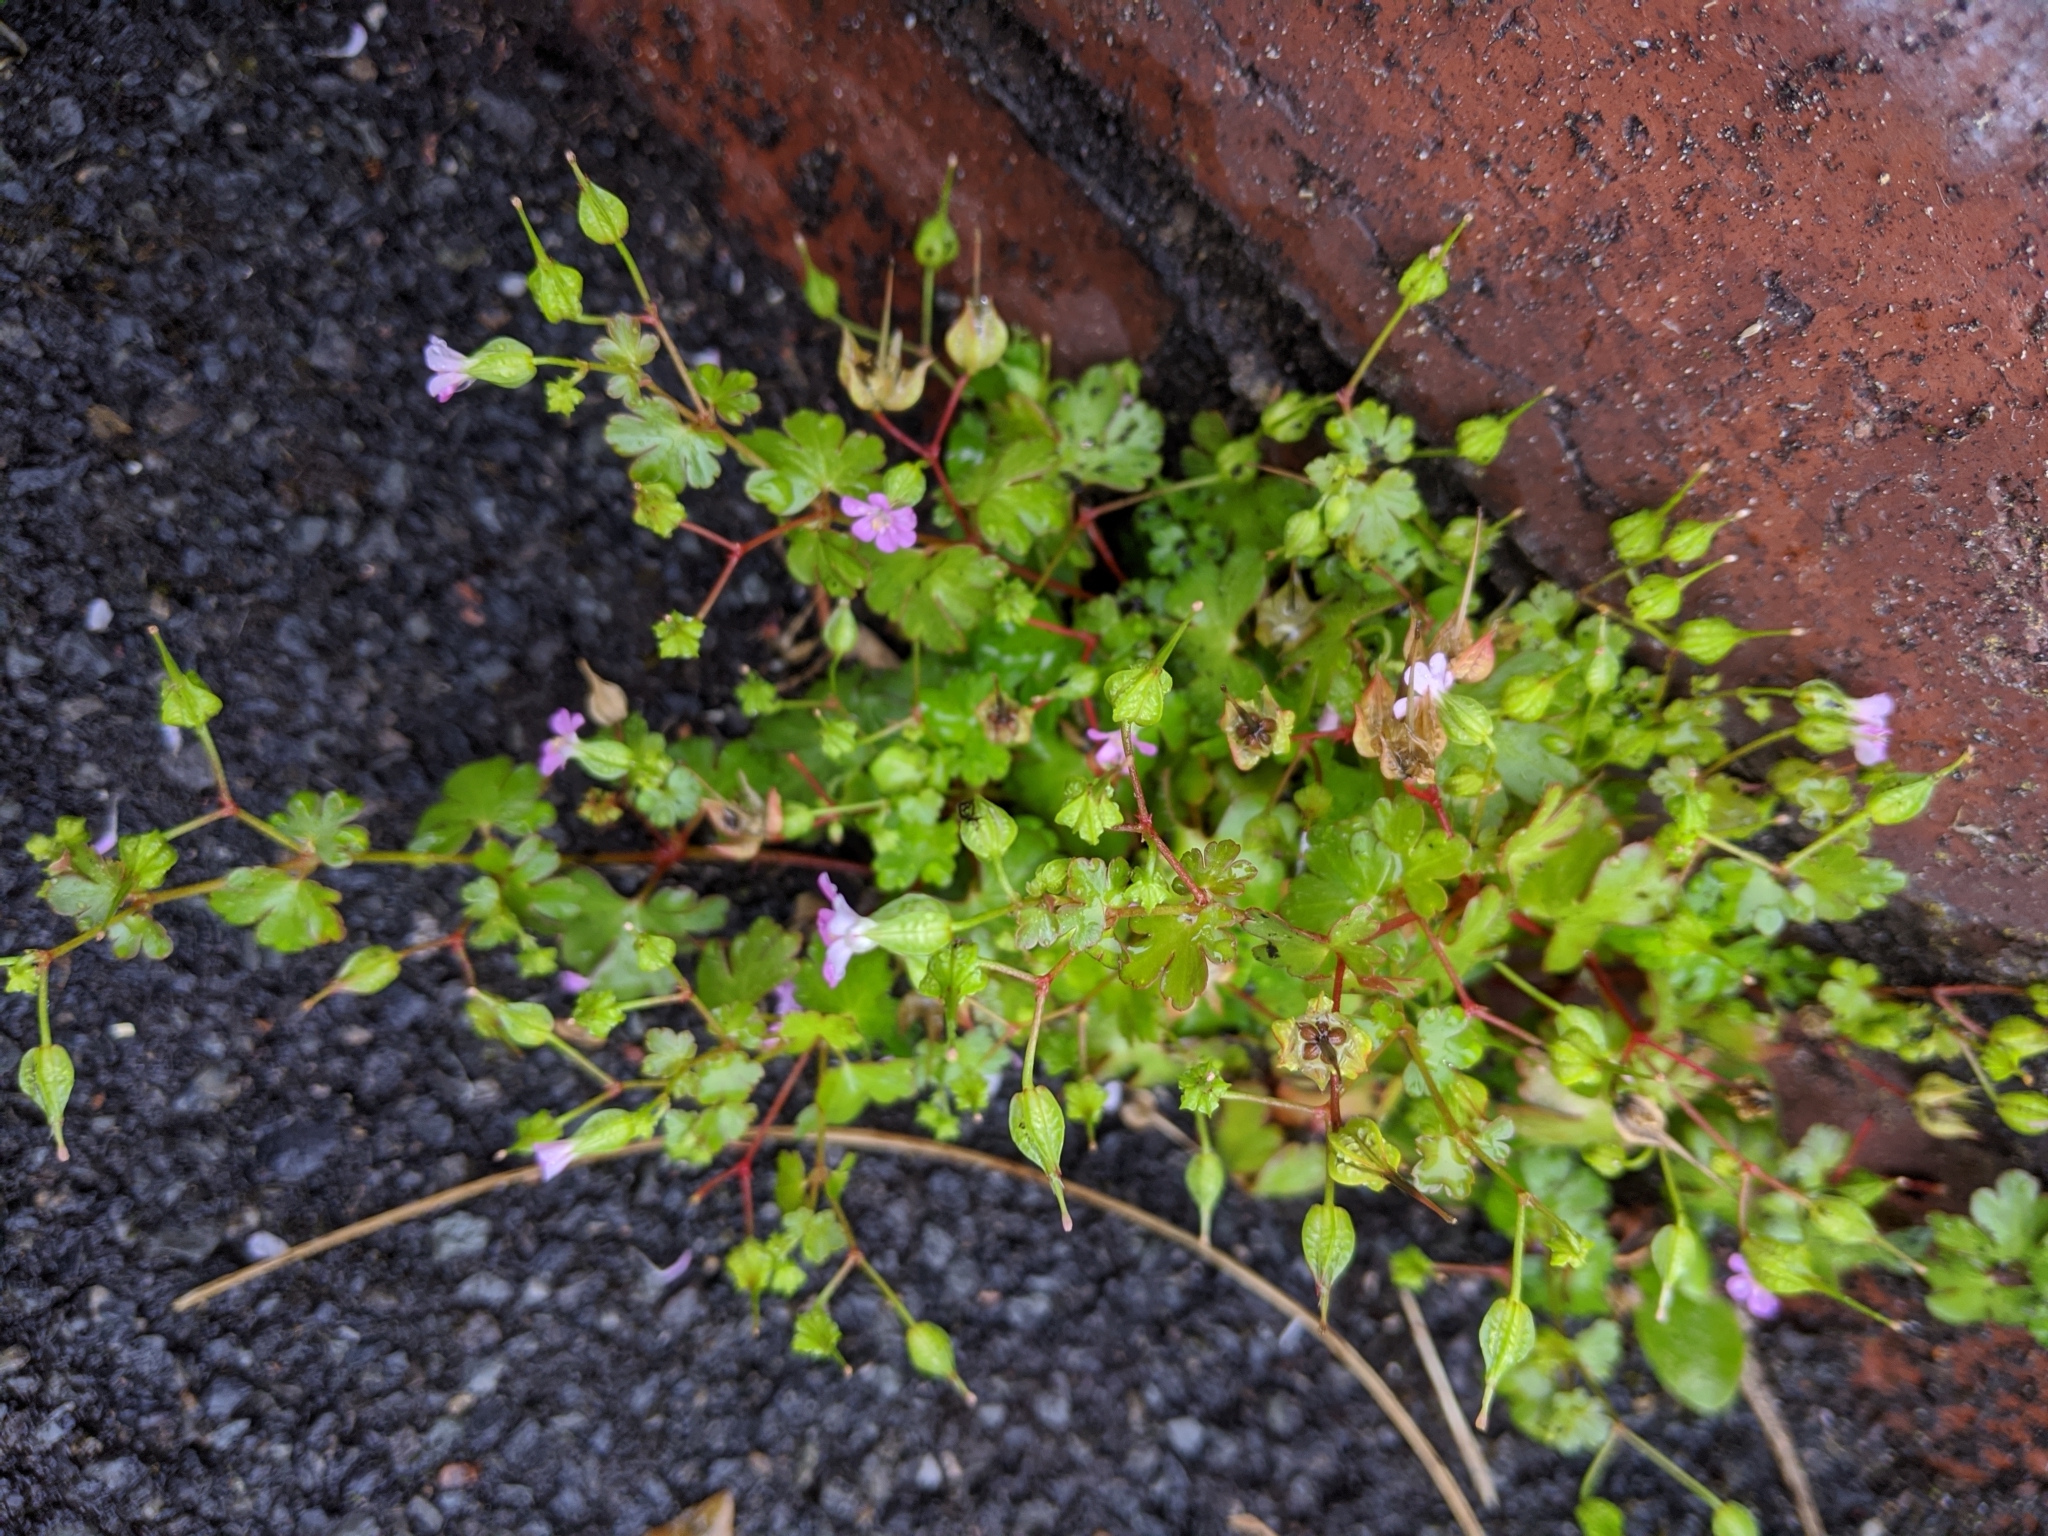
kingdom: Plantae
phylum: Tracheophyta
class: Magnoliopsida
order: Geraniales
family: Geraniaceae
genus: Geranium
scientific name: Geranium lucidum
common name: Shining crane's-bill
